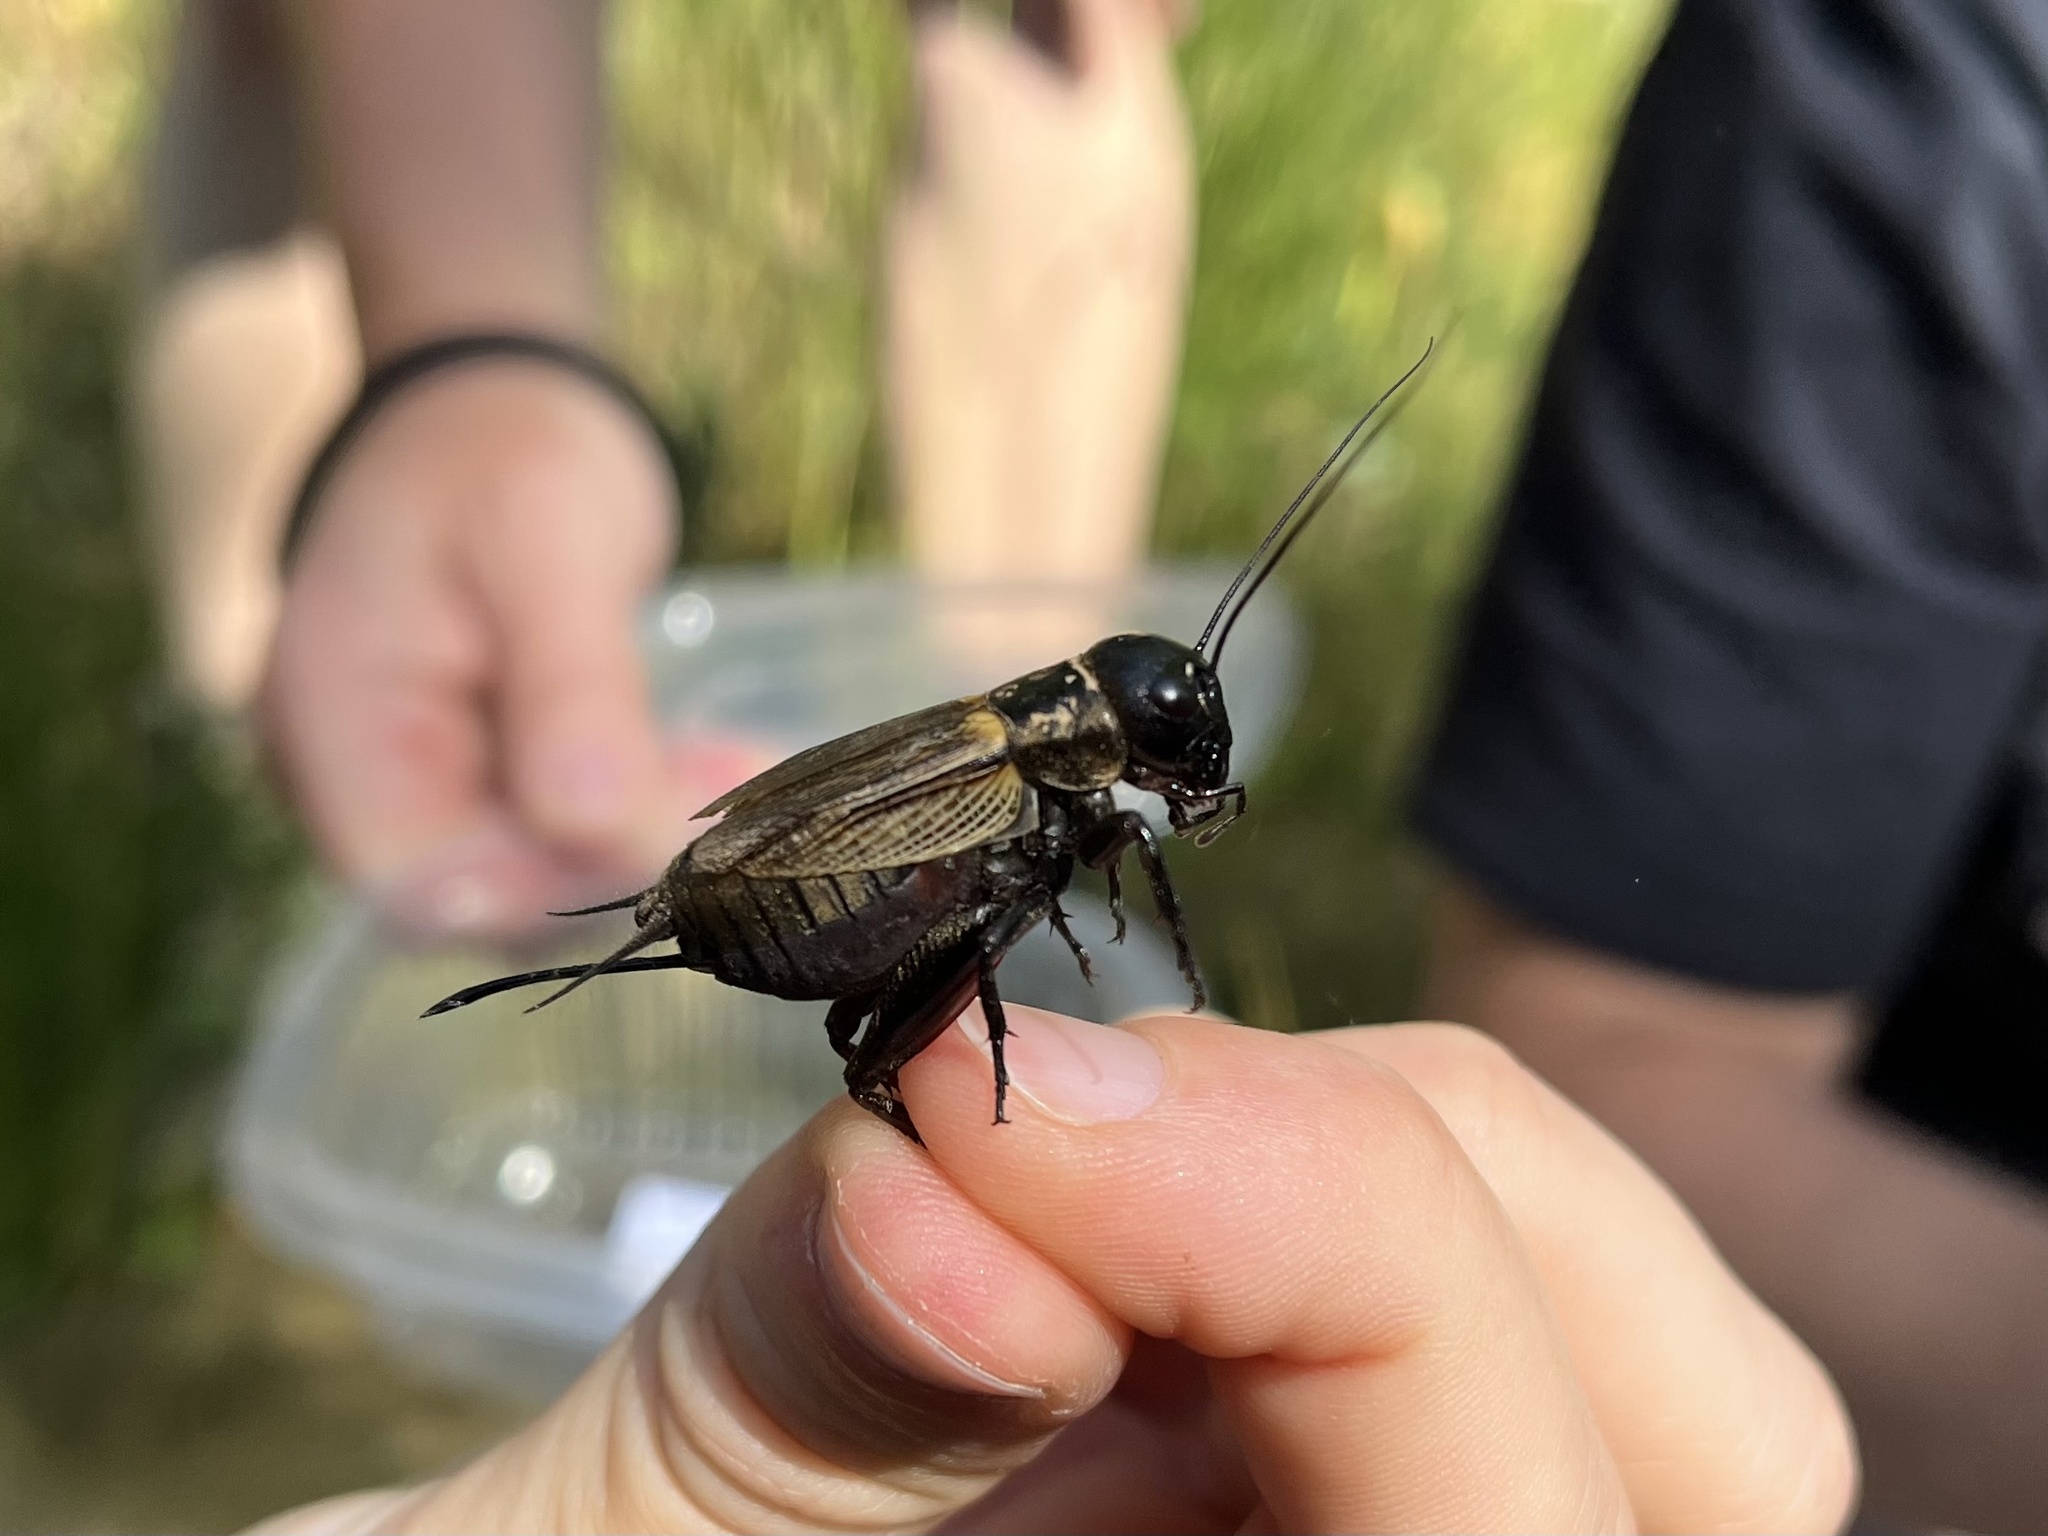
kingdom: Animalia
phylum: Arthropoda
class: Insecta
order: Orthoptera
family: Gryllidae
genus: Gryllus
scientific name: Gryllus campestris
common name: Field cricket
